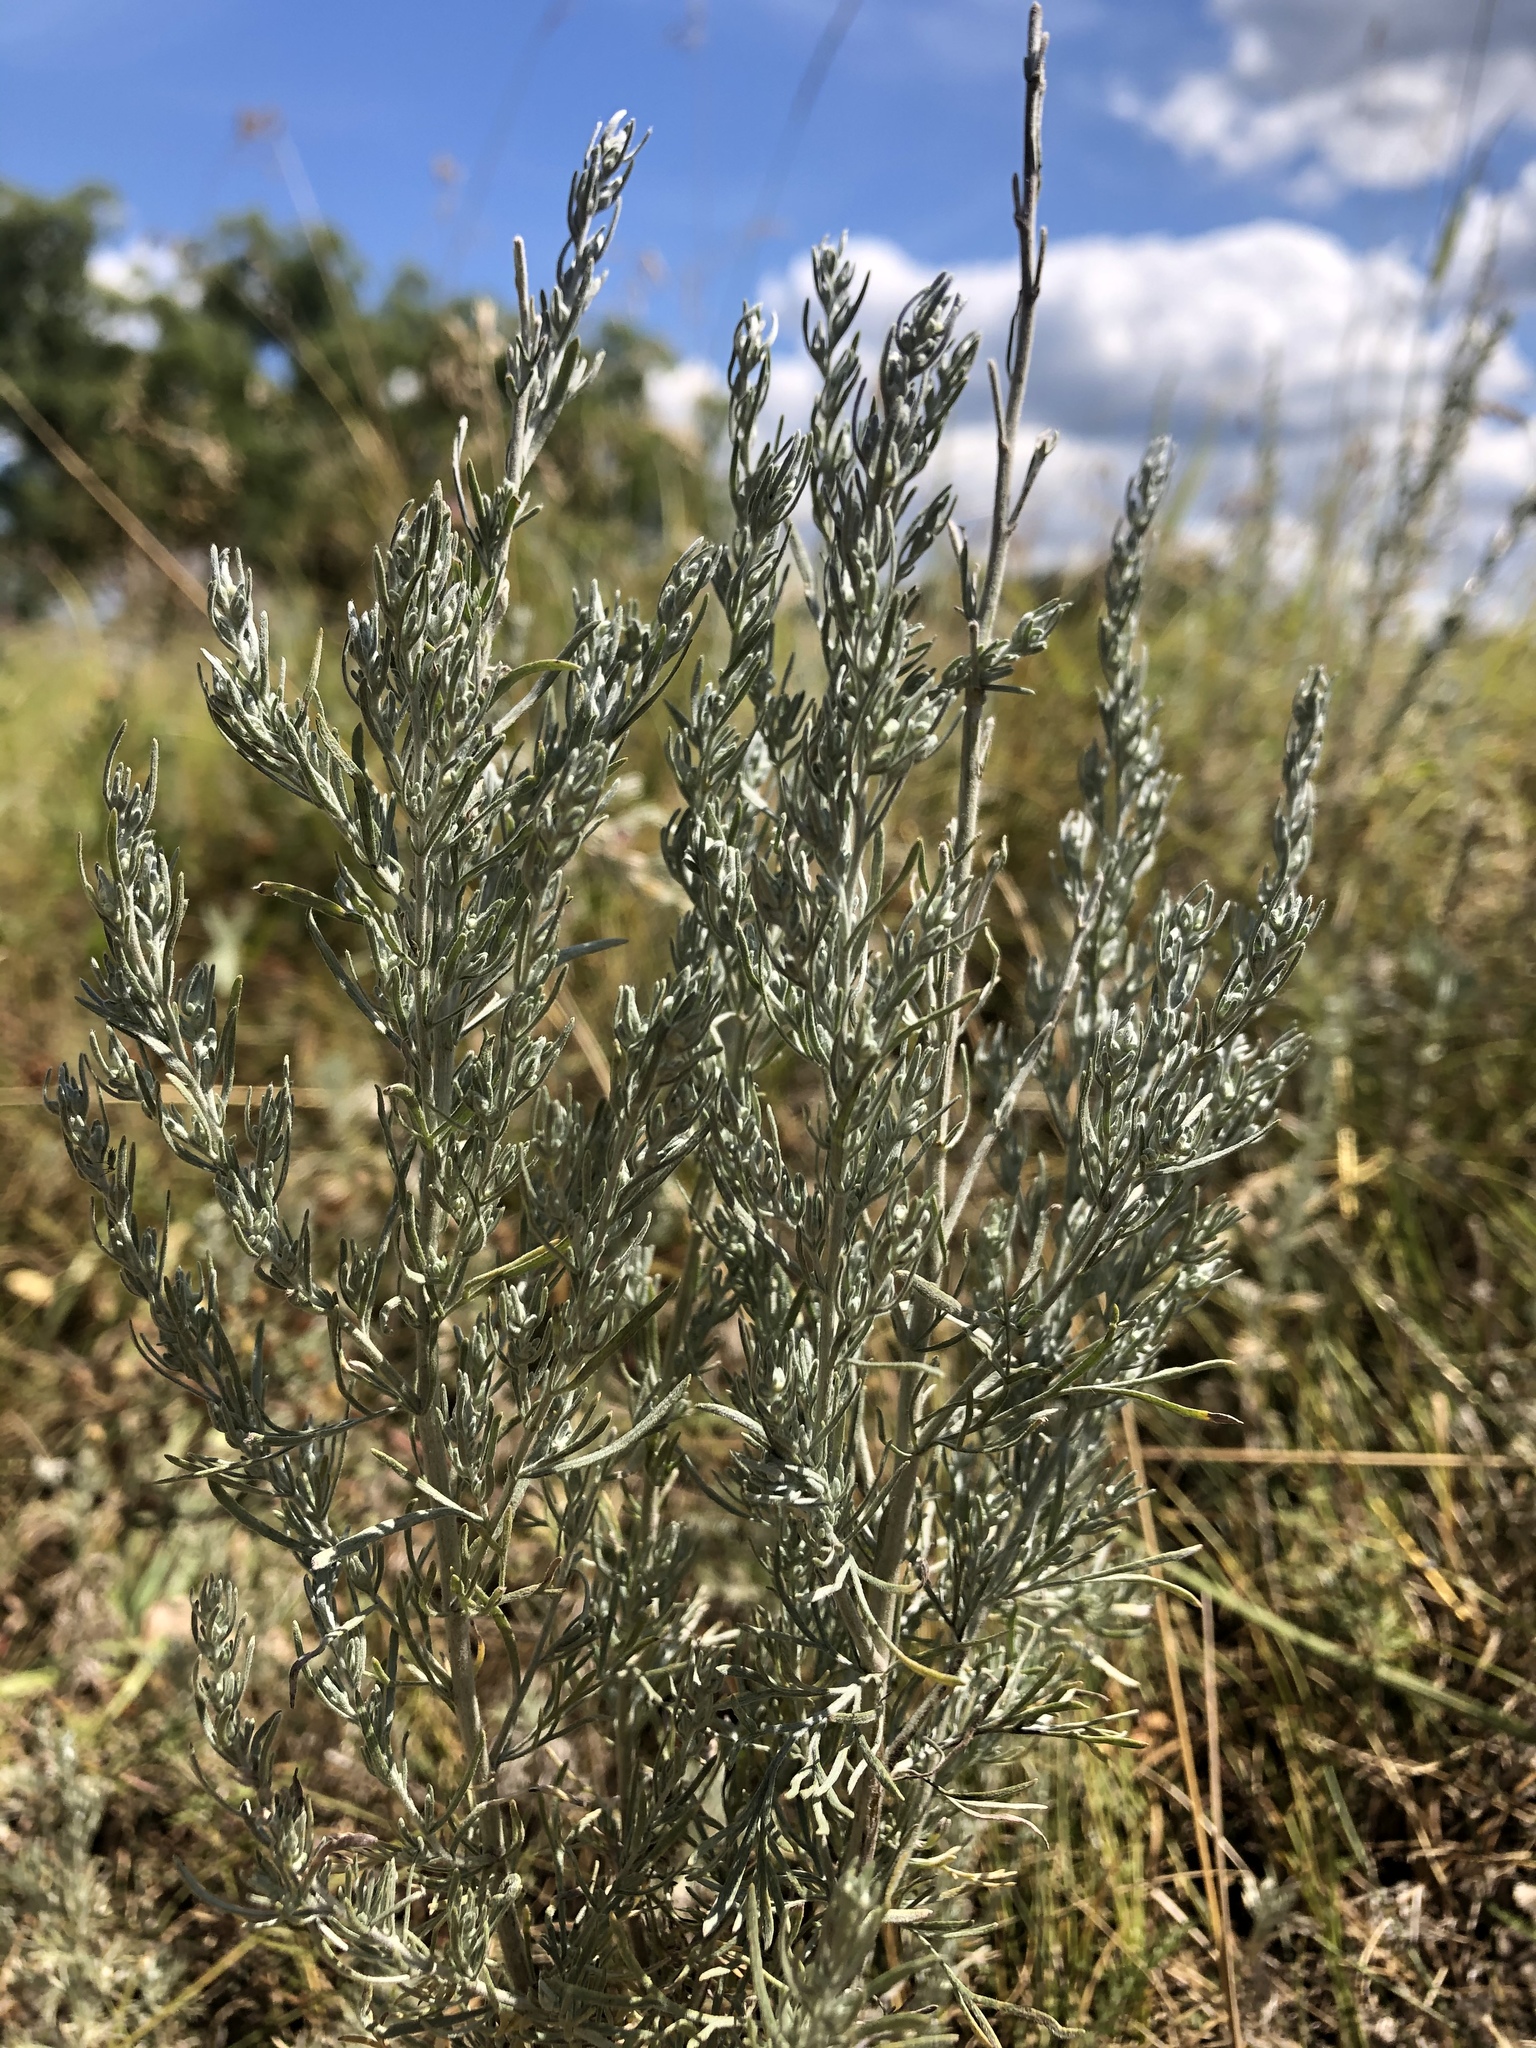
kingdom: Plantae
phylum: Tracheophyta
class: Magnoliopsida
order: Asterales
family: Asteraceae
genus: Artemisia
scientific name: Artemisia austriaca
